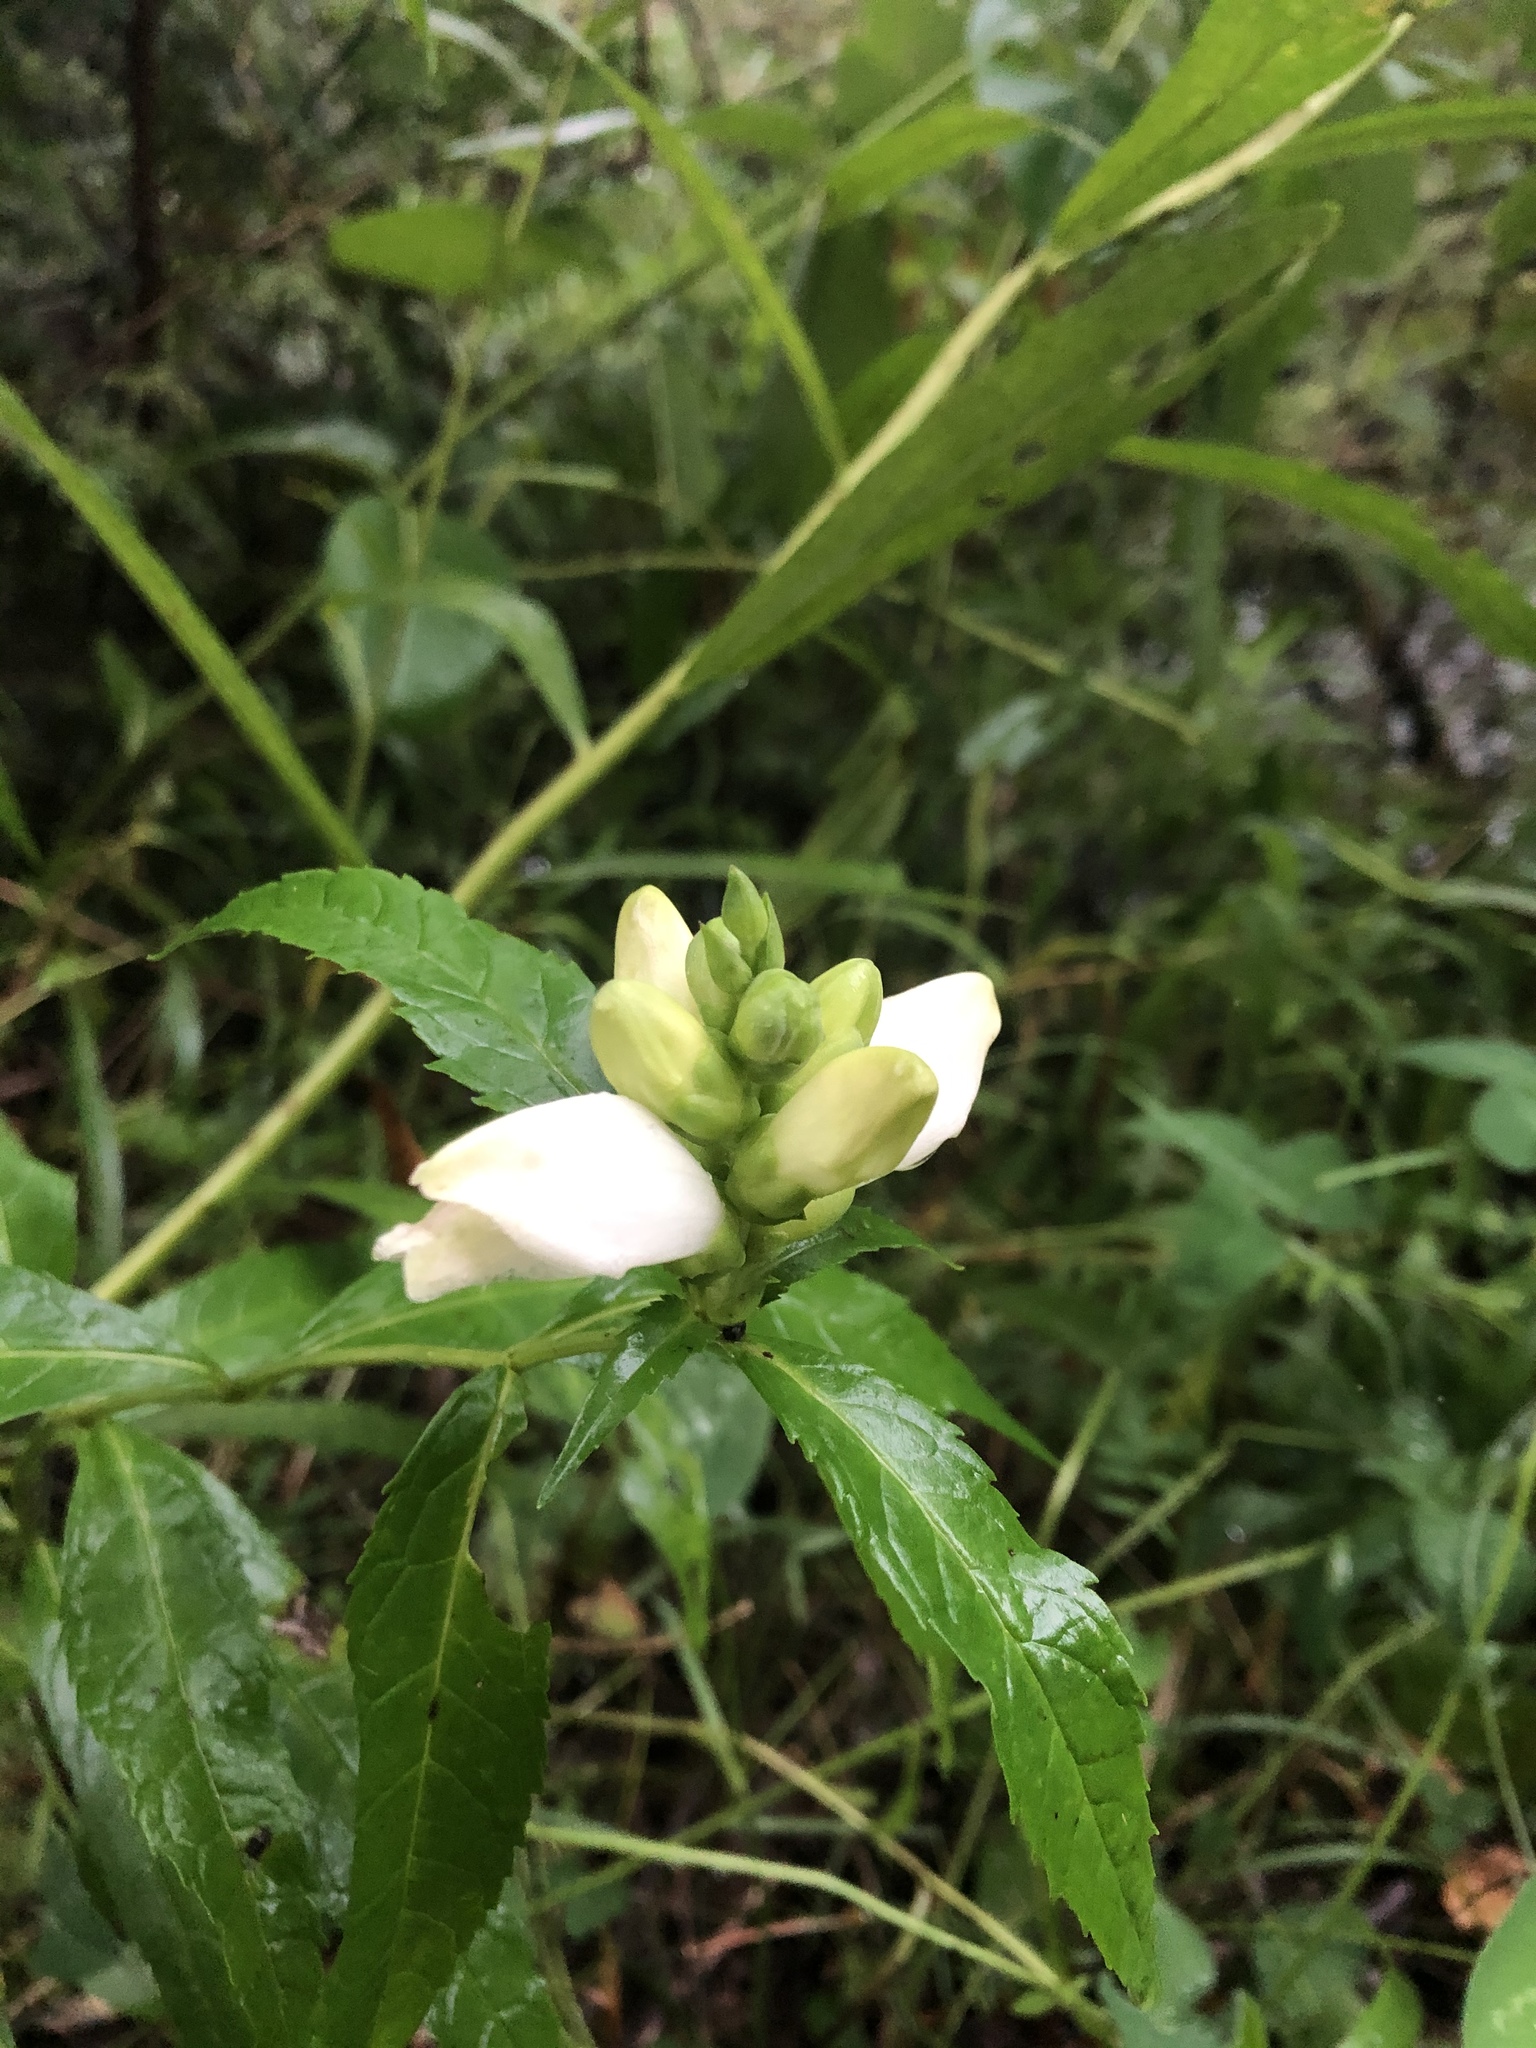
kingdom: Plantae
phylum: Tracheophyta
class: Magnoliopsida
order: Lamiales
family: Plantaginaceae
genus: Chelone
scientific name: Chelone glabra
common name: Snakehead
